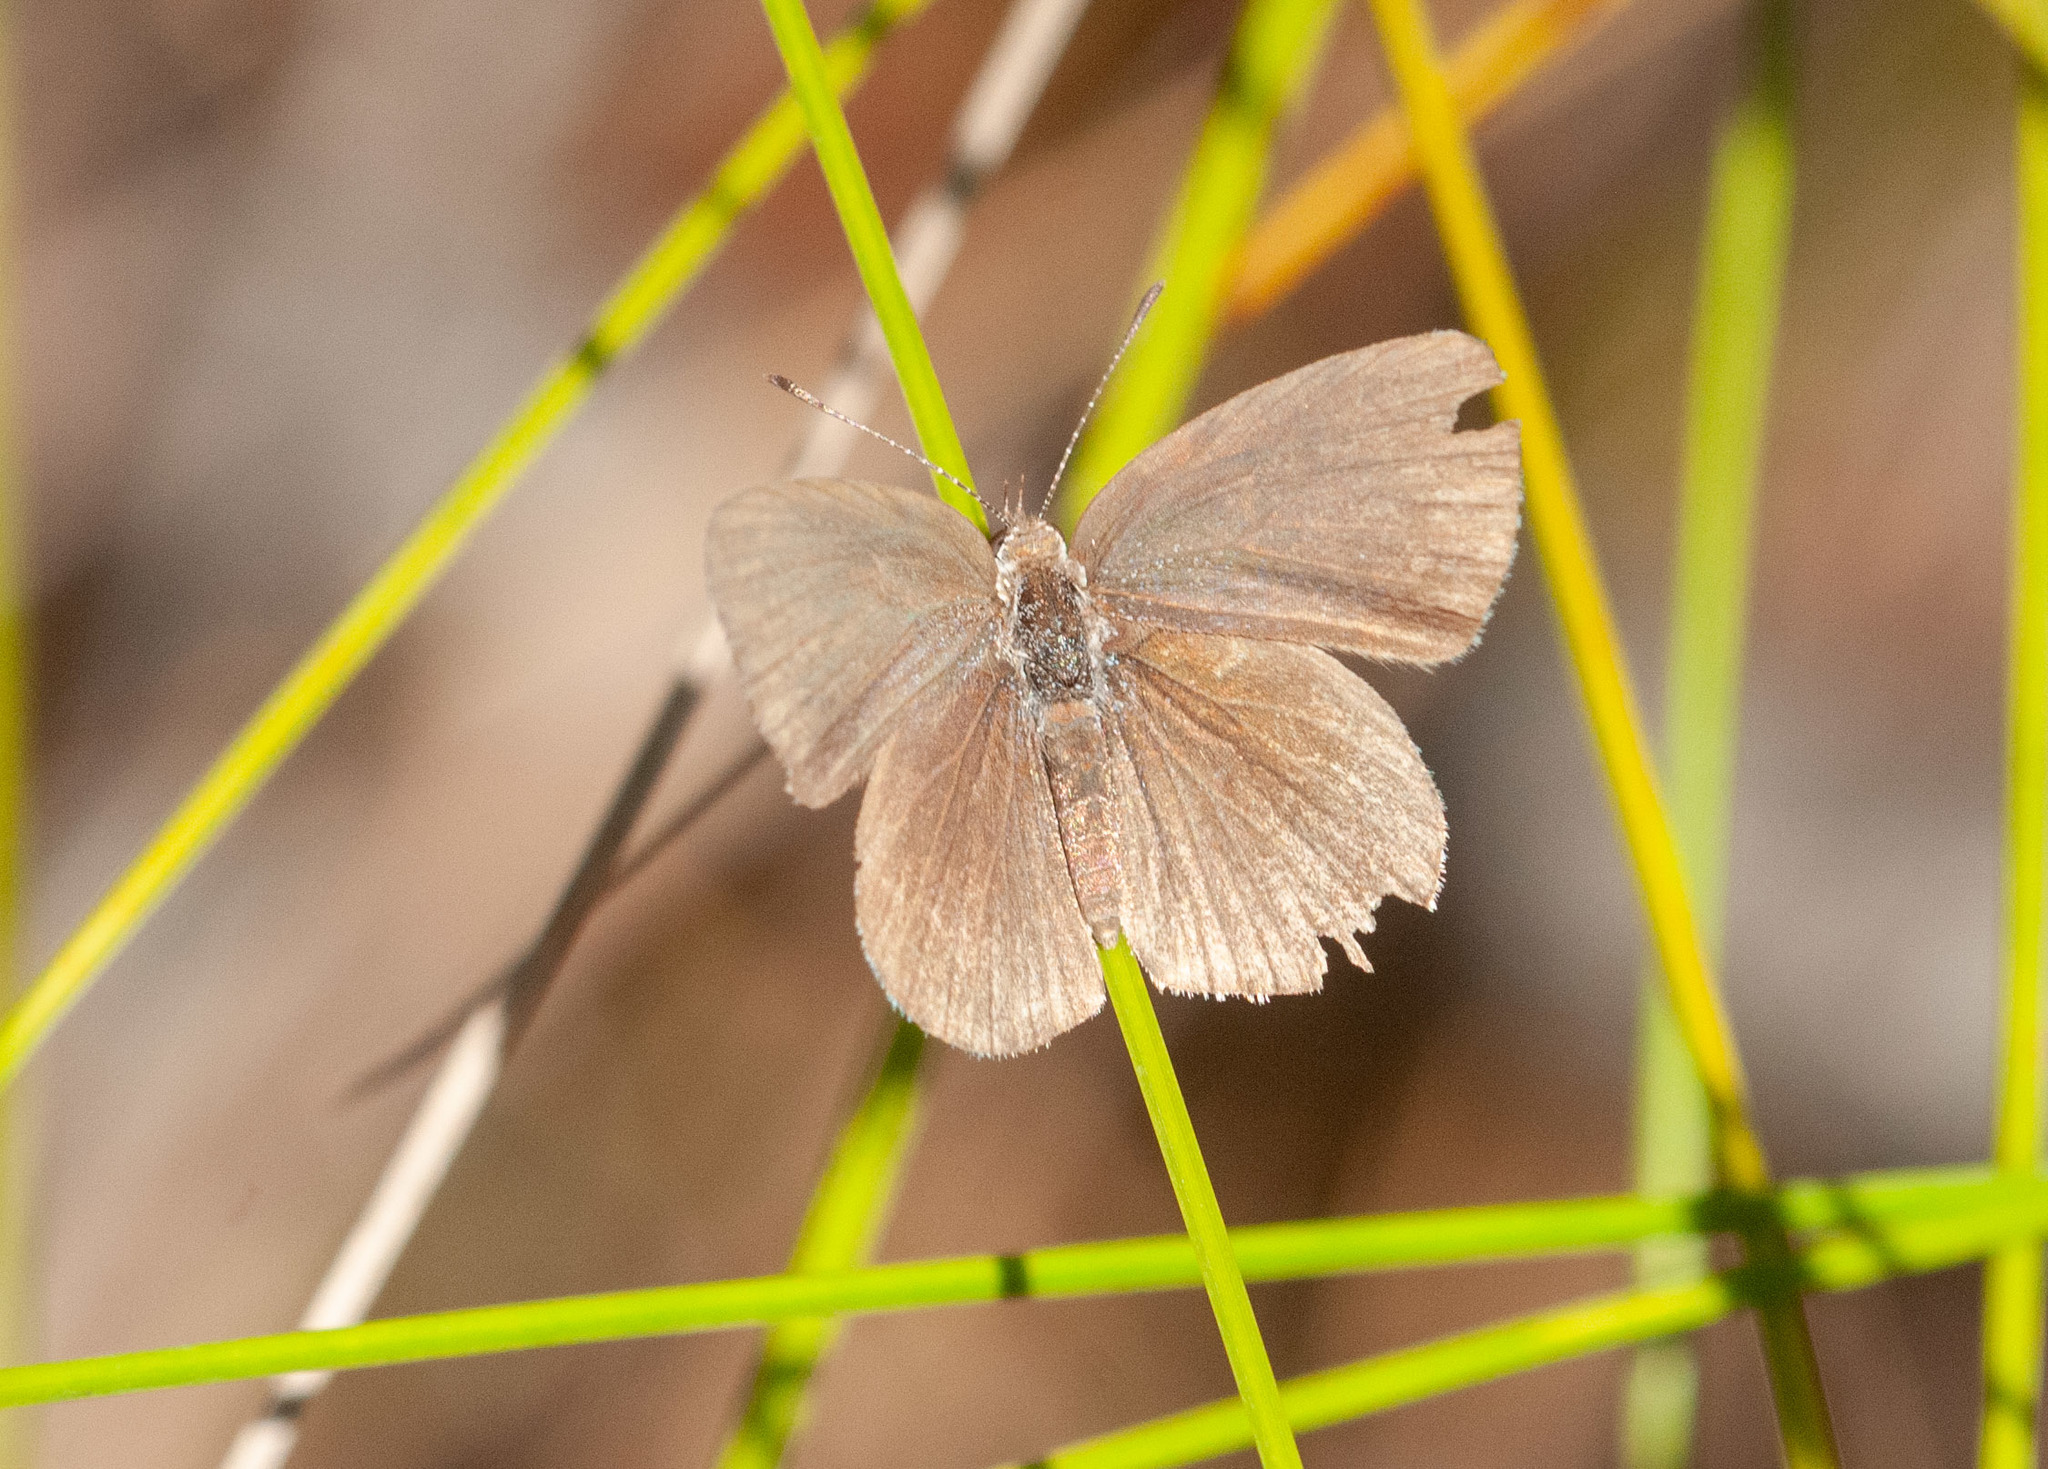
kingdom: Animalia
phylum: Arthropoda
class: Insecta
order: Lepidoptera
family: Lycaenidae
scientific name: Lycaenidae
